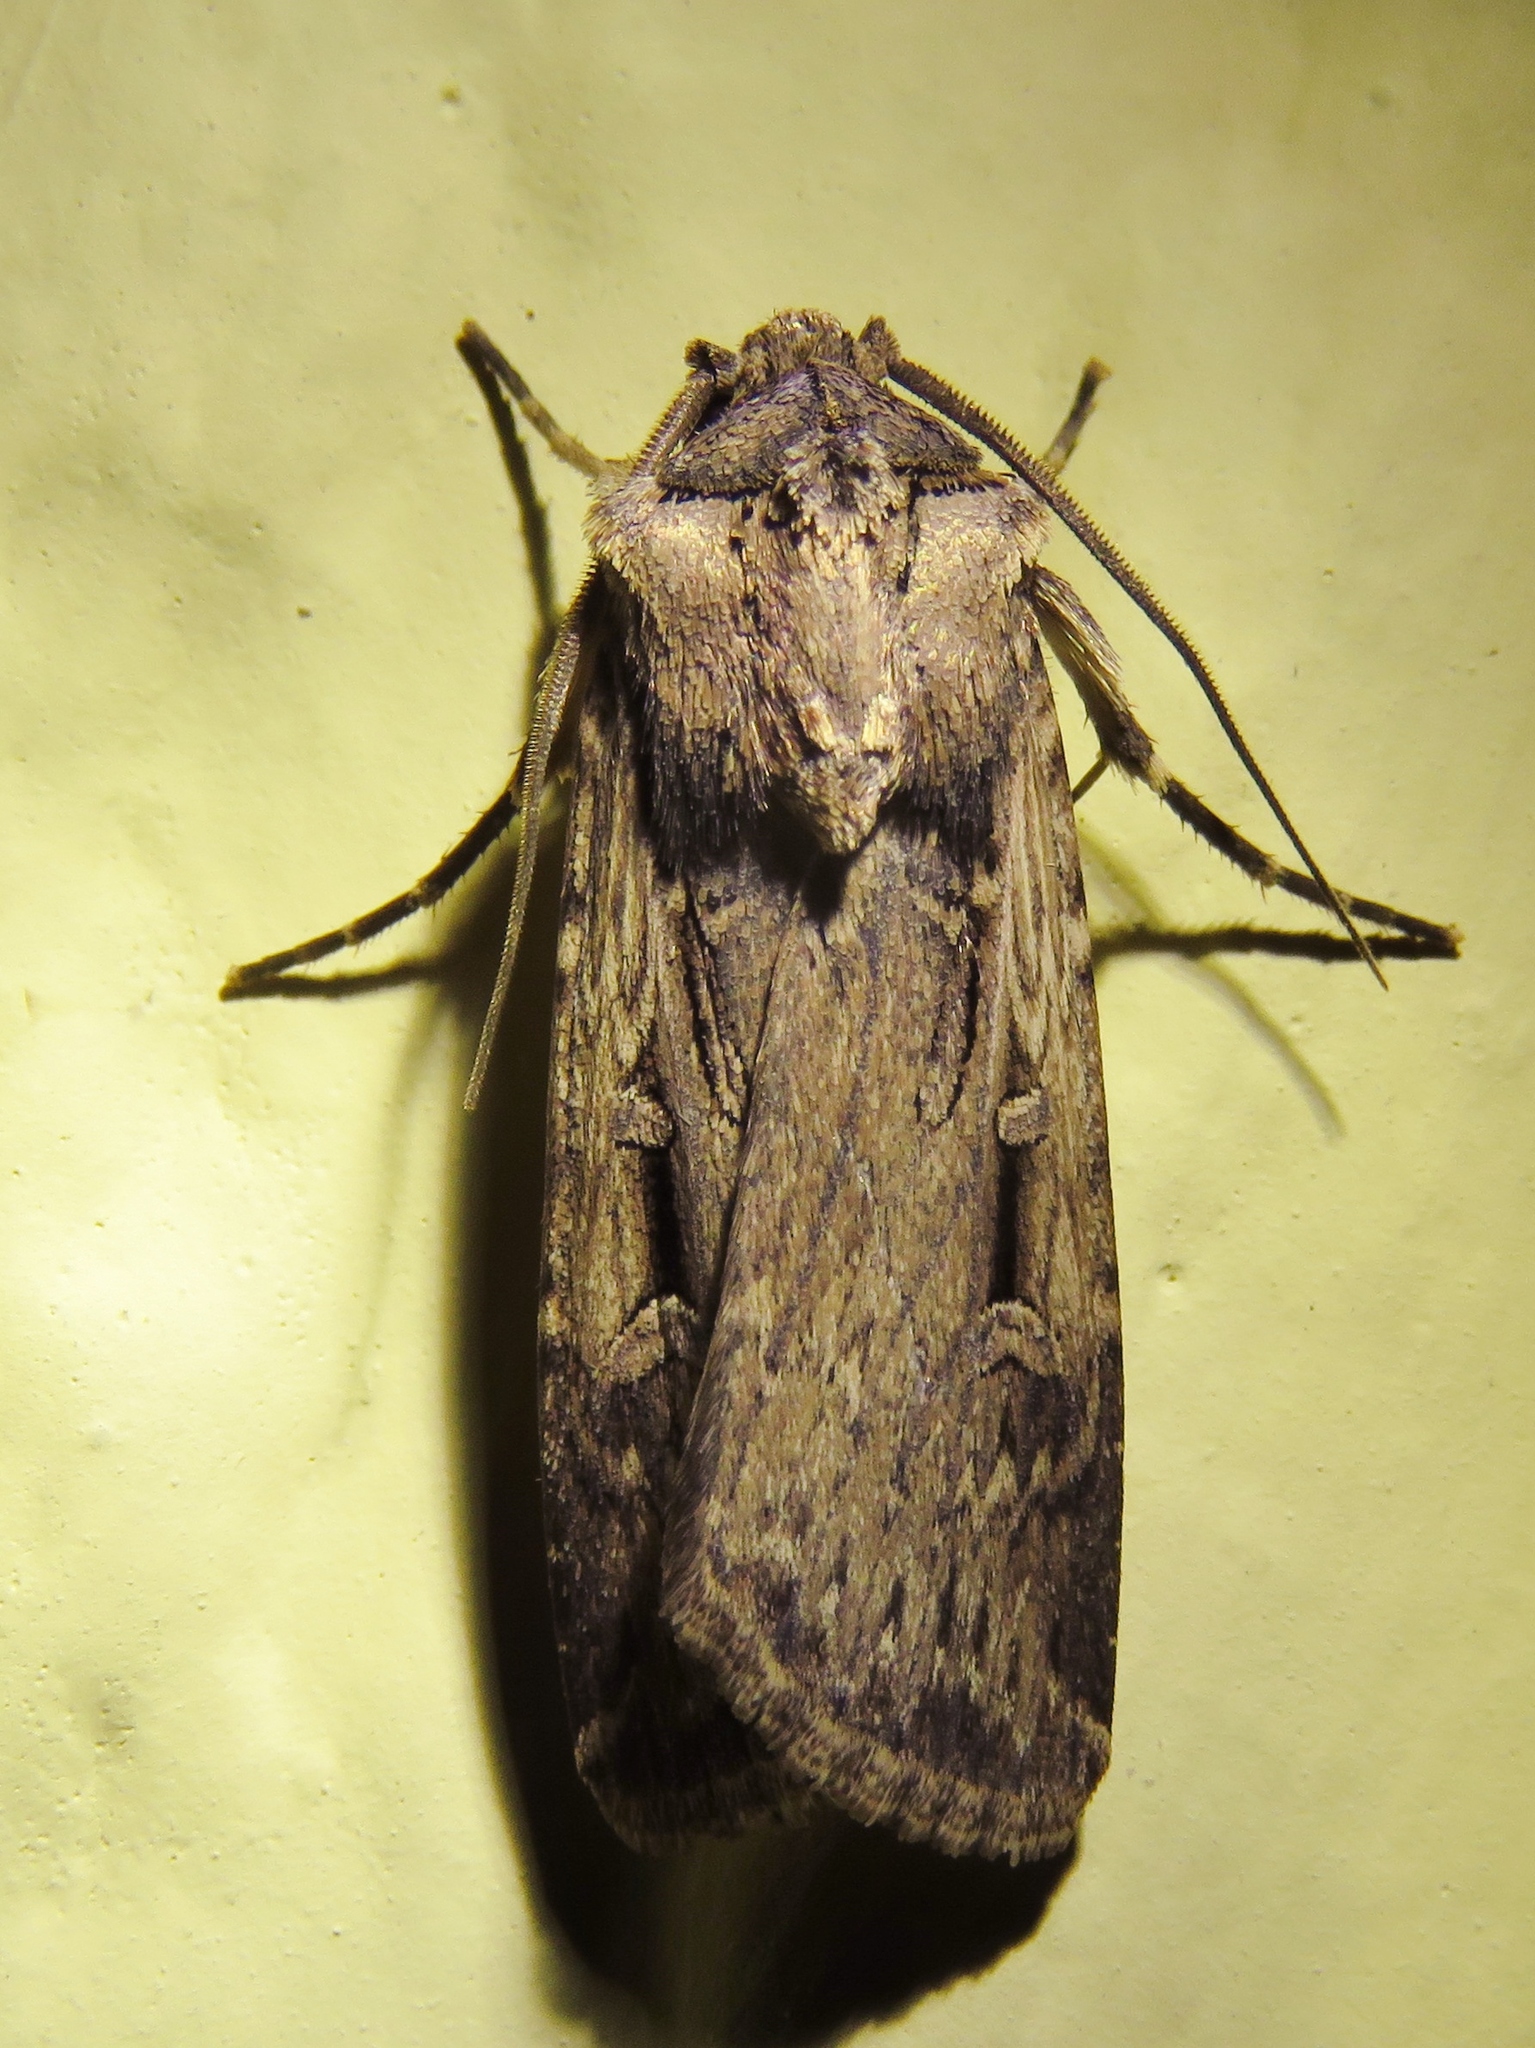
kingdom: Animalia
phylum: Arthropoda
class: Insecta
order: Lepidoptera
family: Noctuidae
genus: Feltia
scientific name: Feltia subterranea
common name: Granulate cutworm
